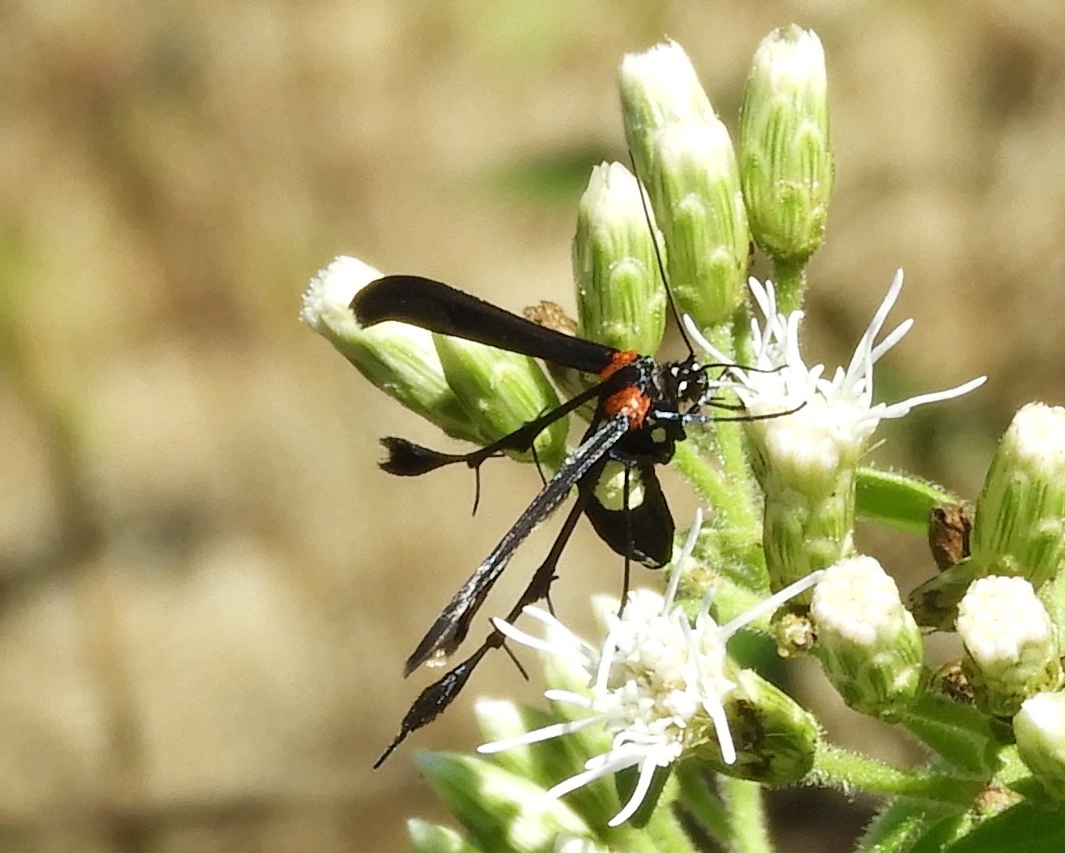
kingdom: Animalia
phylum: Arthropoda
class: Insecta
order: Lepidoptera
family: Pterophoridae
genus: Hellinsia
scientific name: Hellinsia chamelai
